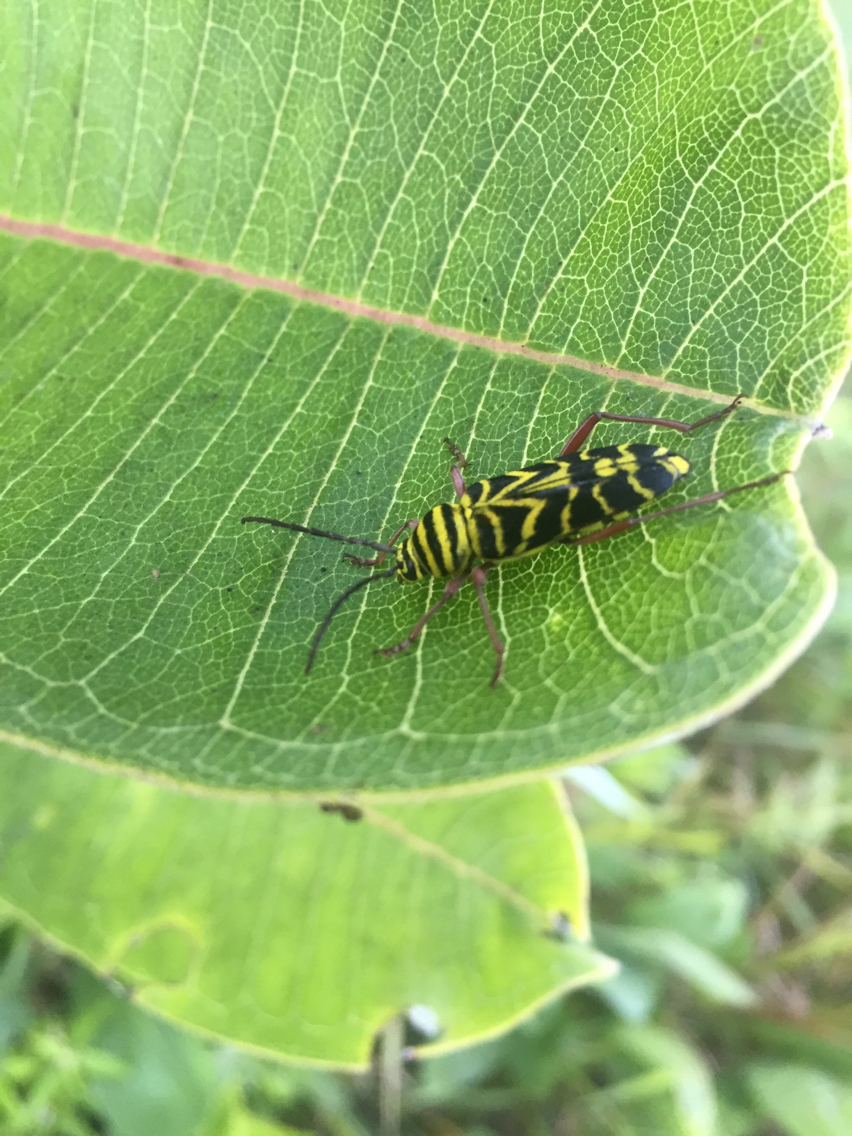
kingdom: Animalia
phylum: Arthropoda
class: Insecta
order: Coleoptera
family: Cerambycidae
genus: Megacyllene
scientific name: Megacyllene robiniae
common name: Locust borer
